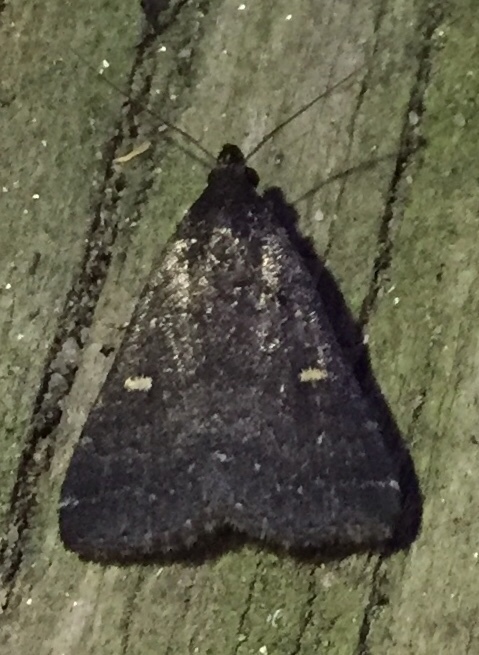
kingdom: Animalia
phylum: Arthropoda
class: Insecta
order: Lepidoptera
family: Erebidae
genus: Tetanolita
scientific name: Tetanolita mynesalis
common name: Smoky tetanolita moth
